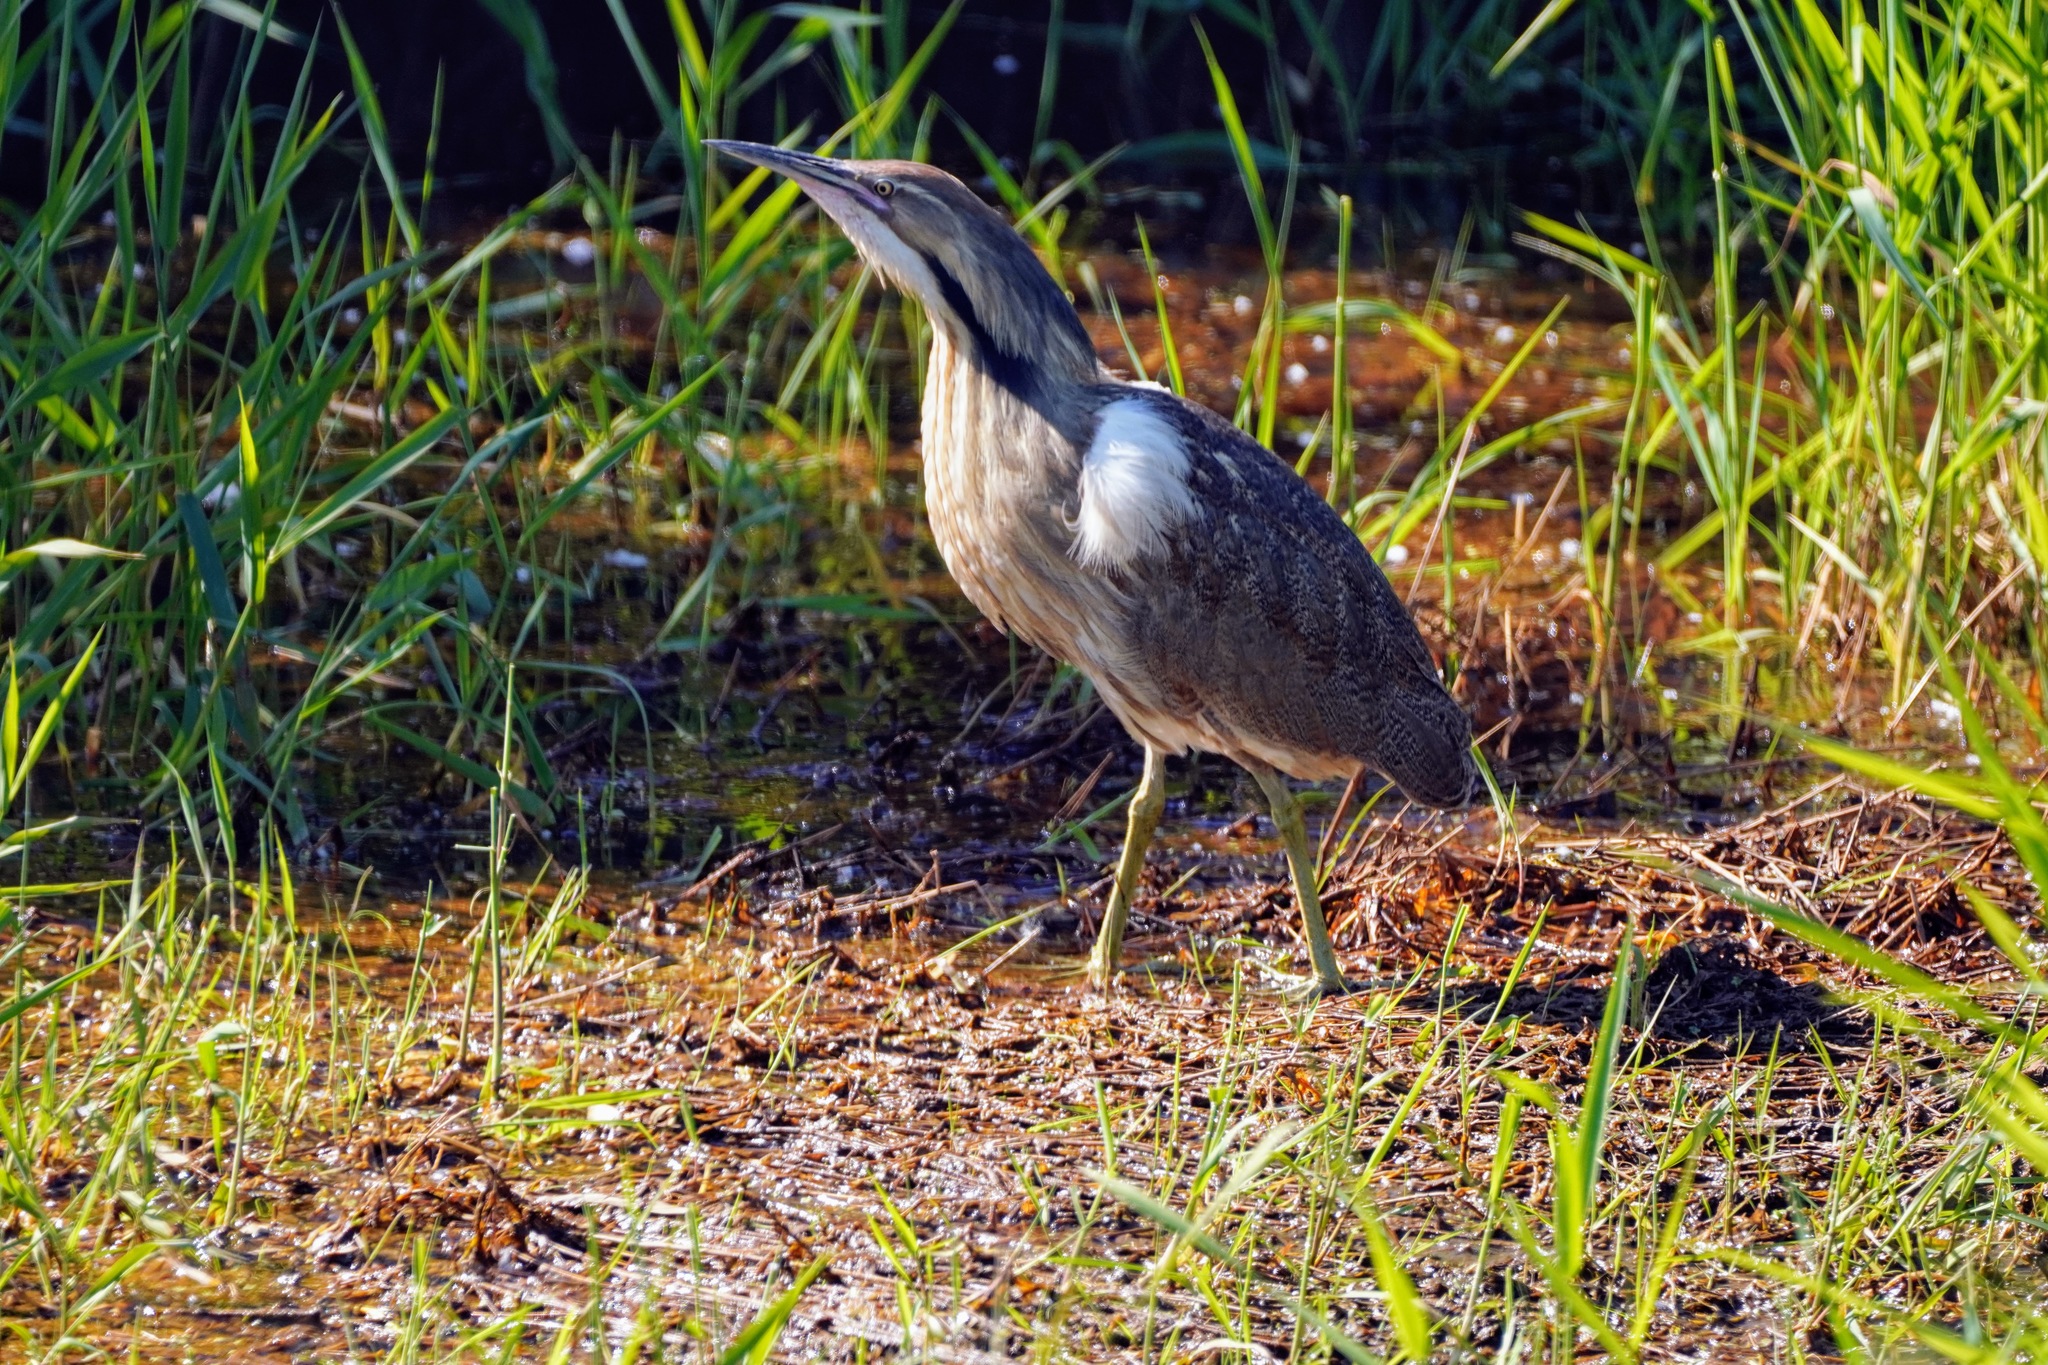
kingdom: Animalia
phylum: Chordata
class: Aves
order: Pelecaniformes
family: Ardeidae
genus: Botaurus
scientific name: Botaurus lentiginosus
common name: American bittern
